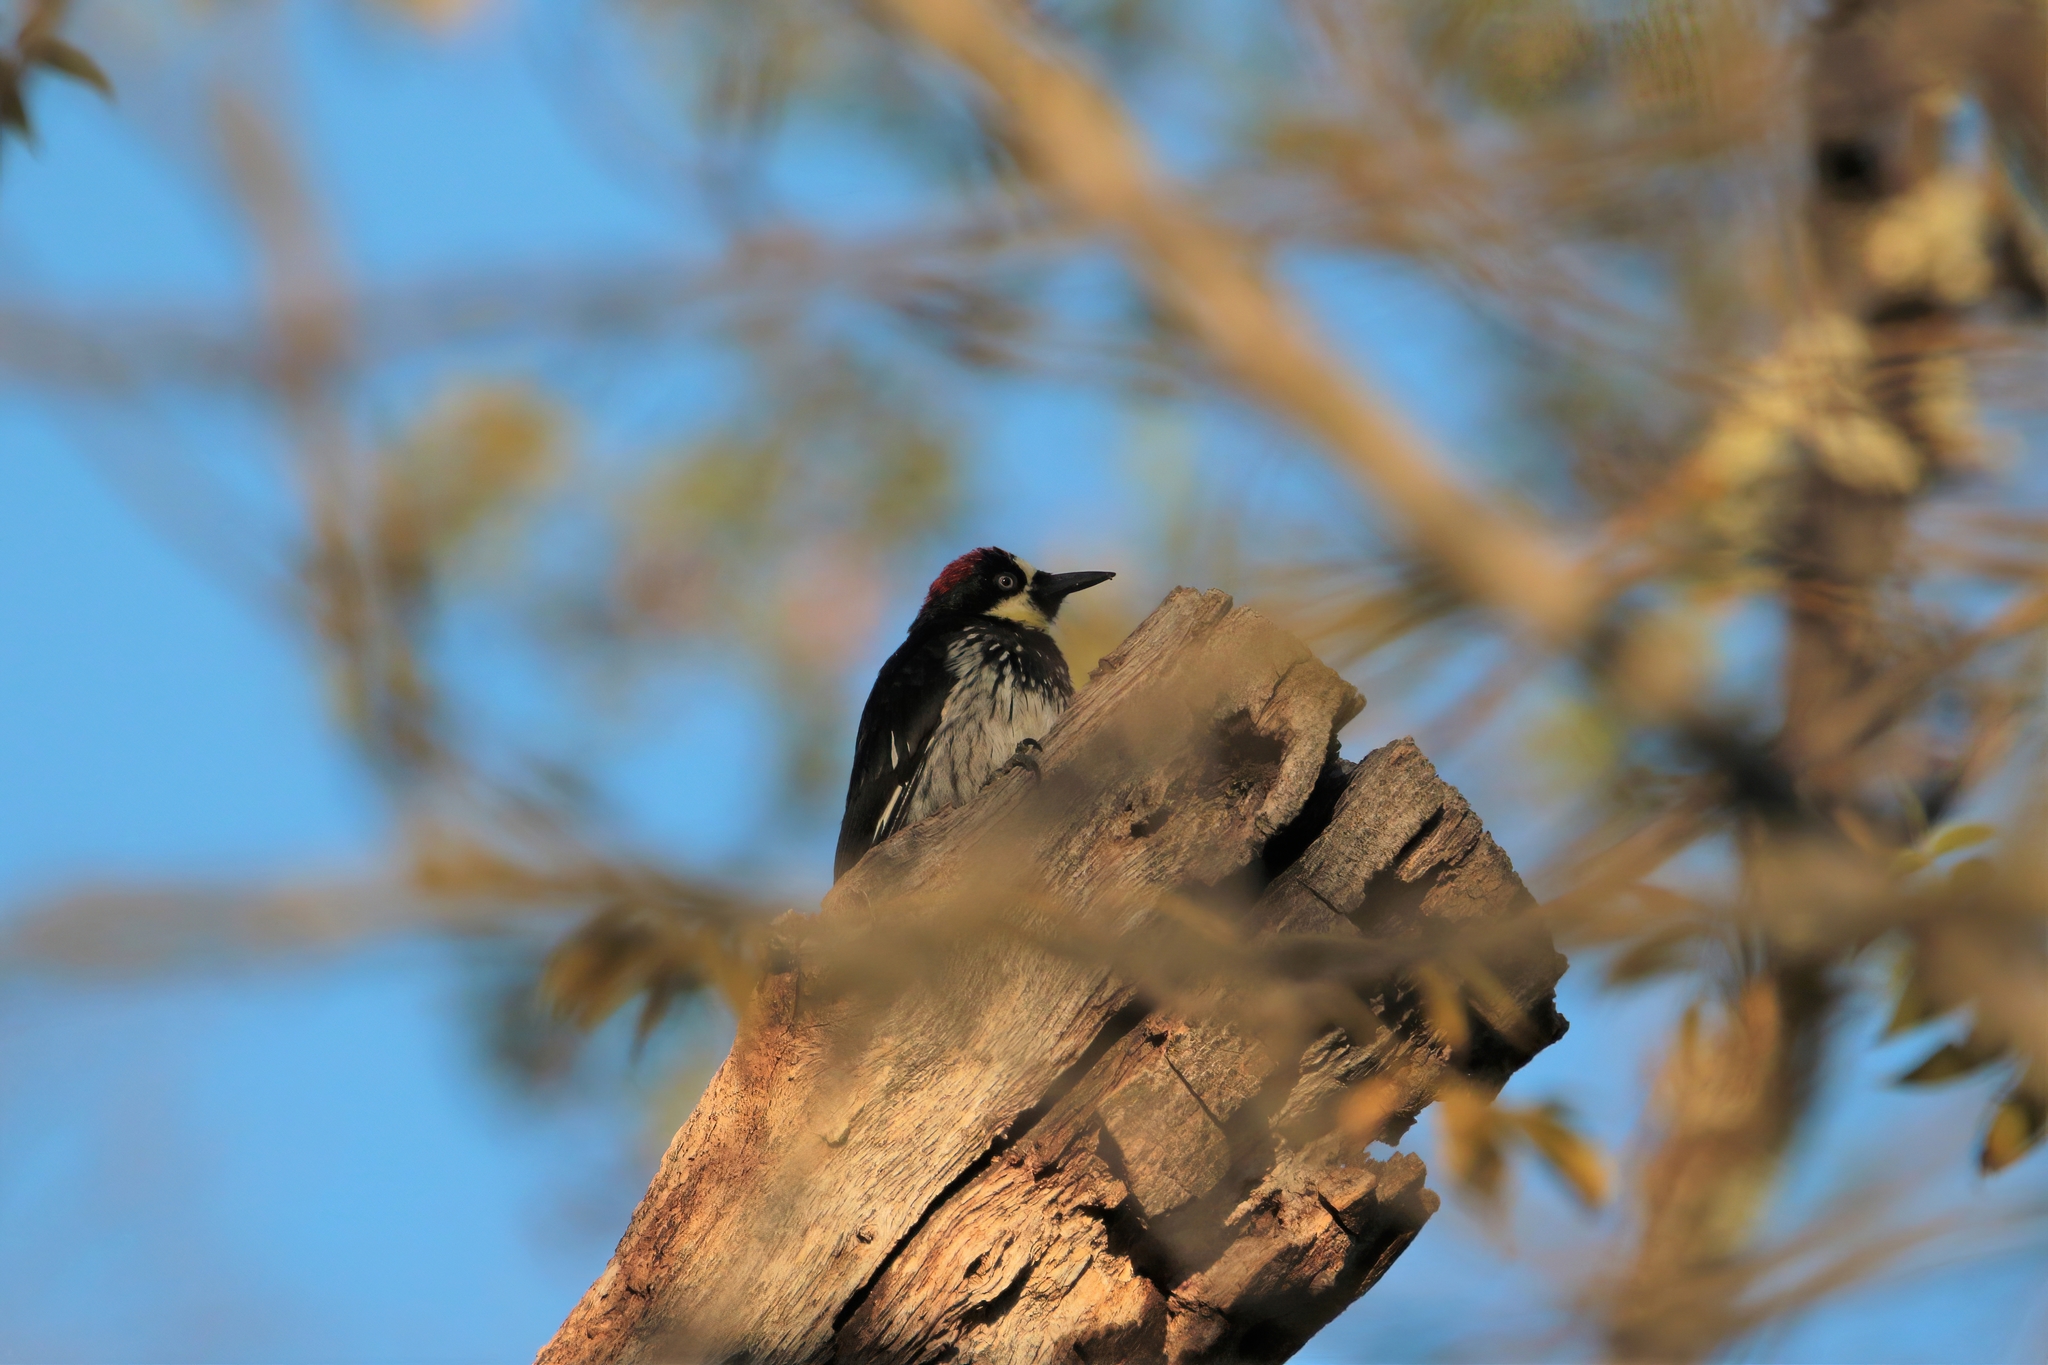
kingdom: Animalia
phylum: Chordata
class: Aves
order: Piciformes
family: Picidae
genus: Melanerpes
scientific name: Melanerpes formicivorus
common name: Acorn woodpecker
